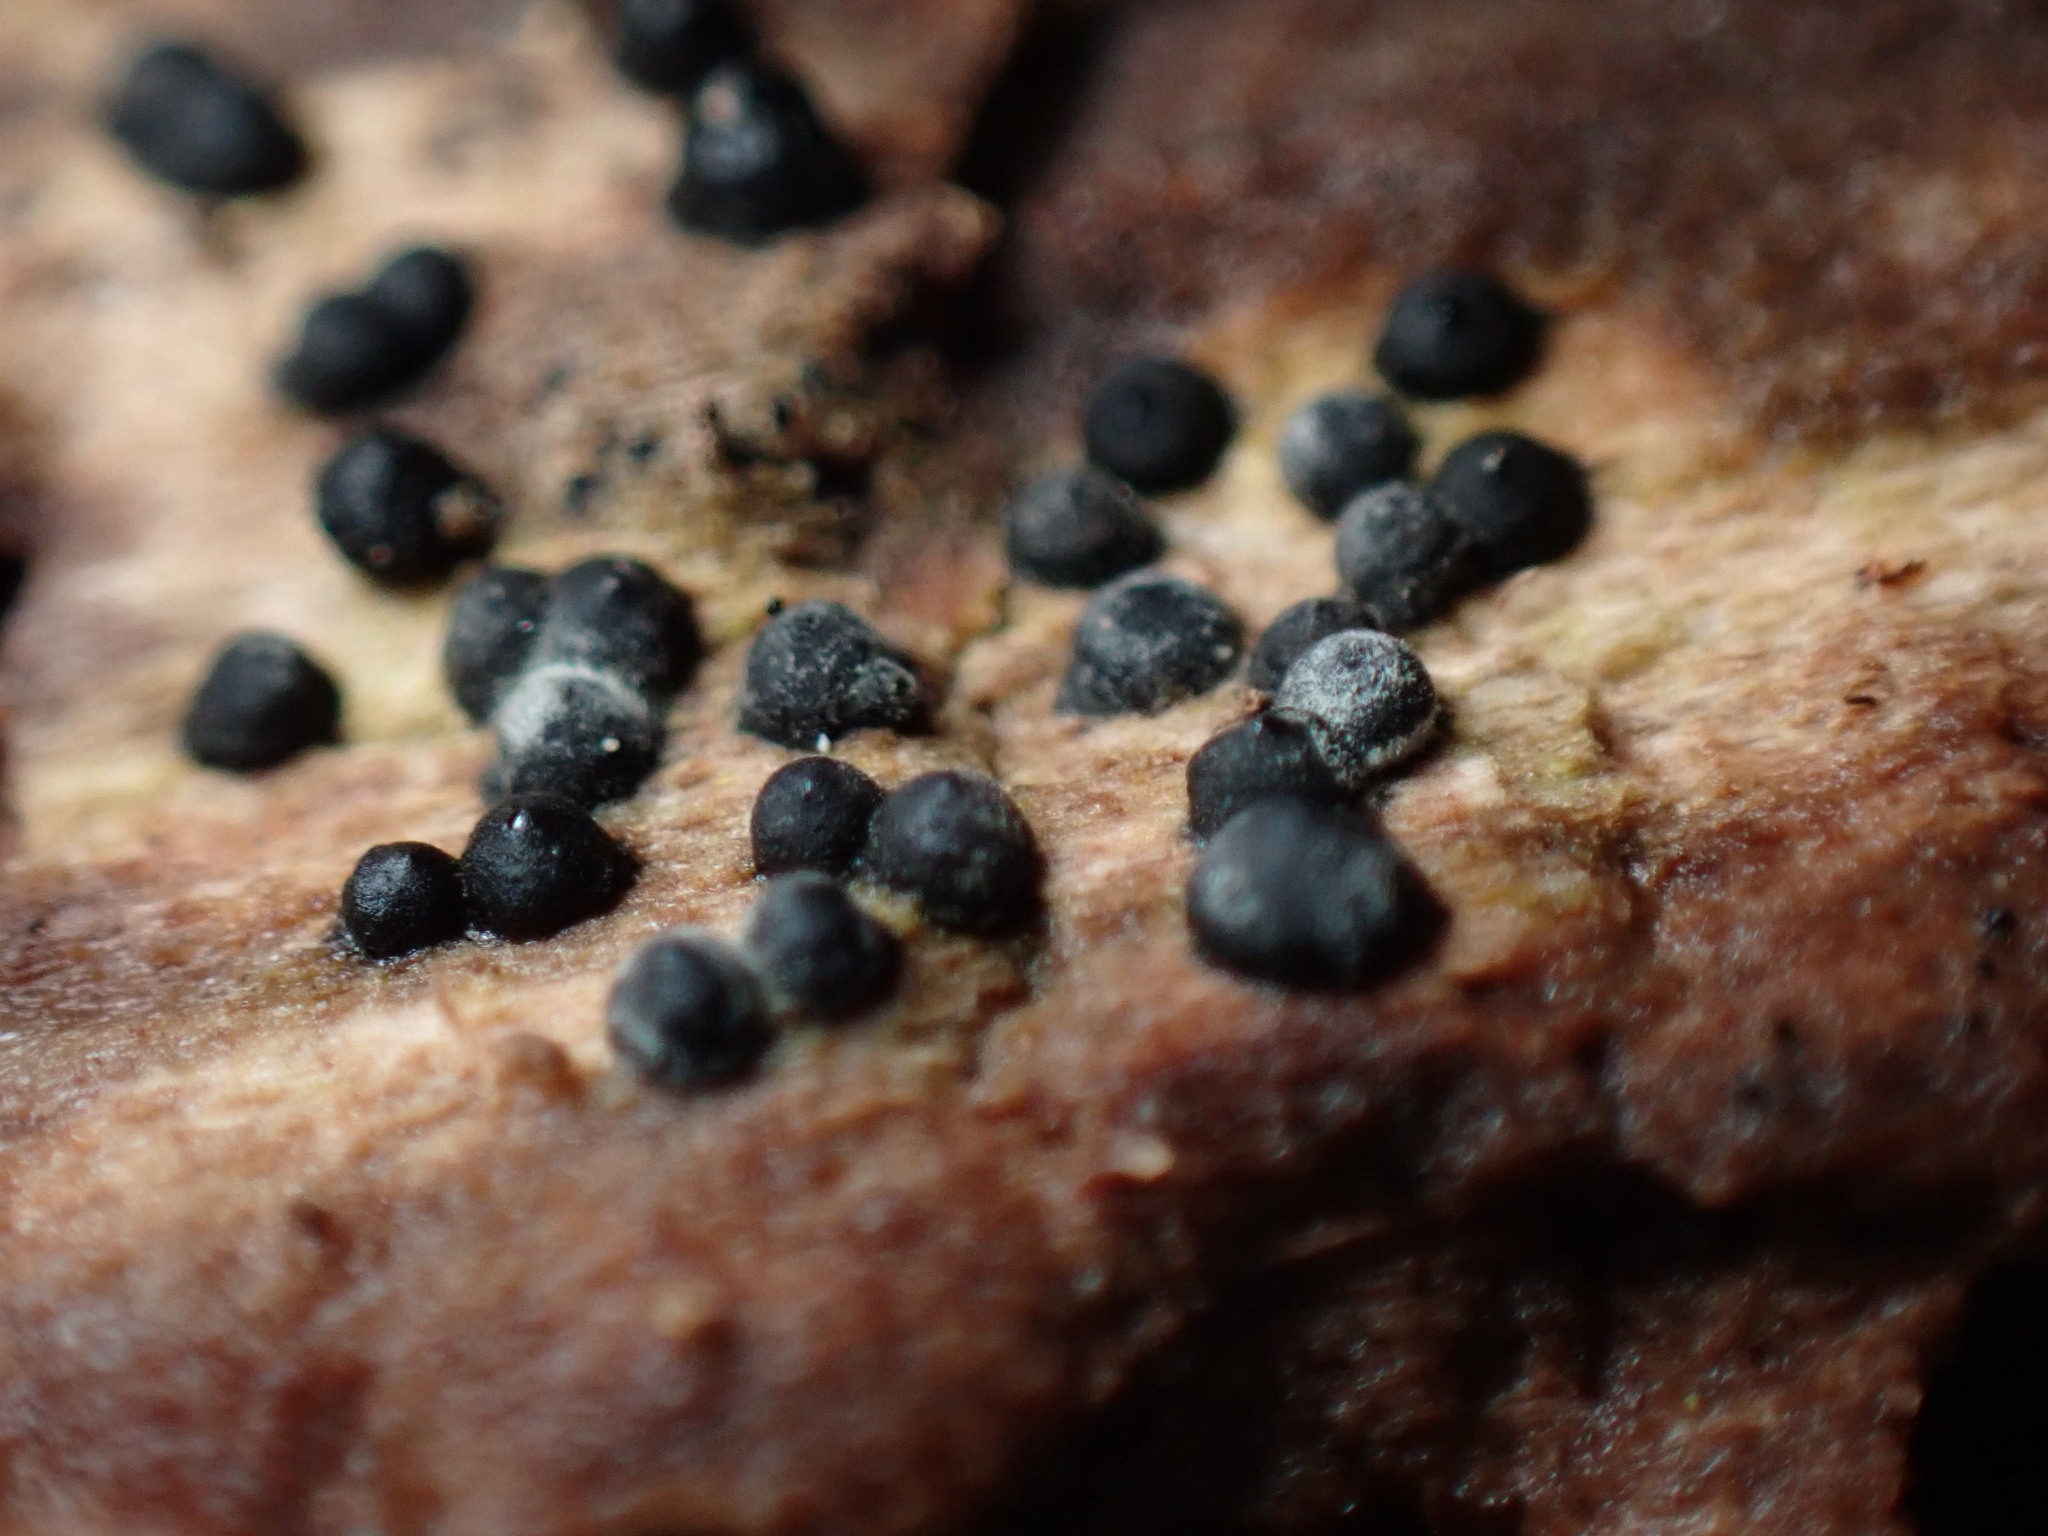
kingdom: Fungi
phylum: Ascomycota
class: Sordariomycetes
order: Xylariales
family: Xylariaceae
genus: Rosellinia
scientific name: Rosellinia subiculata
